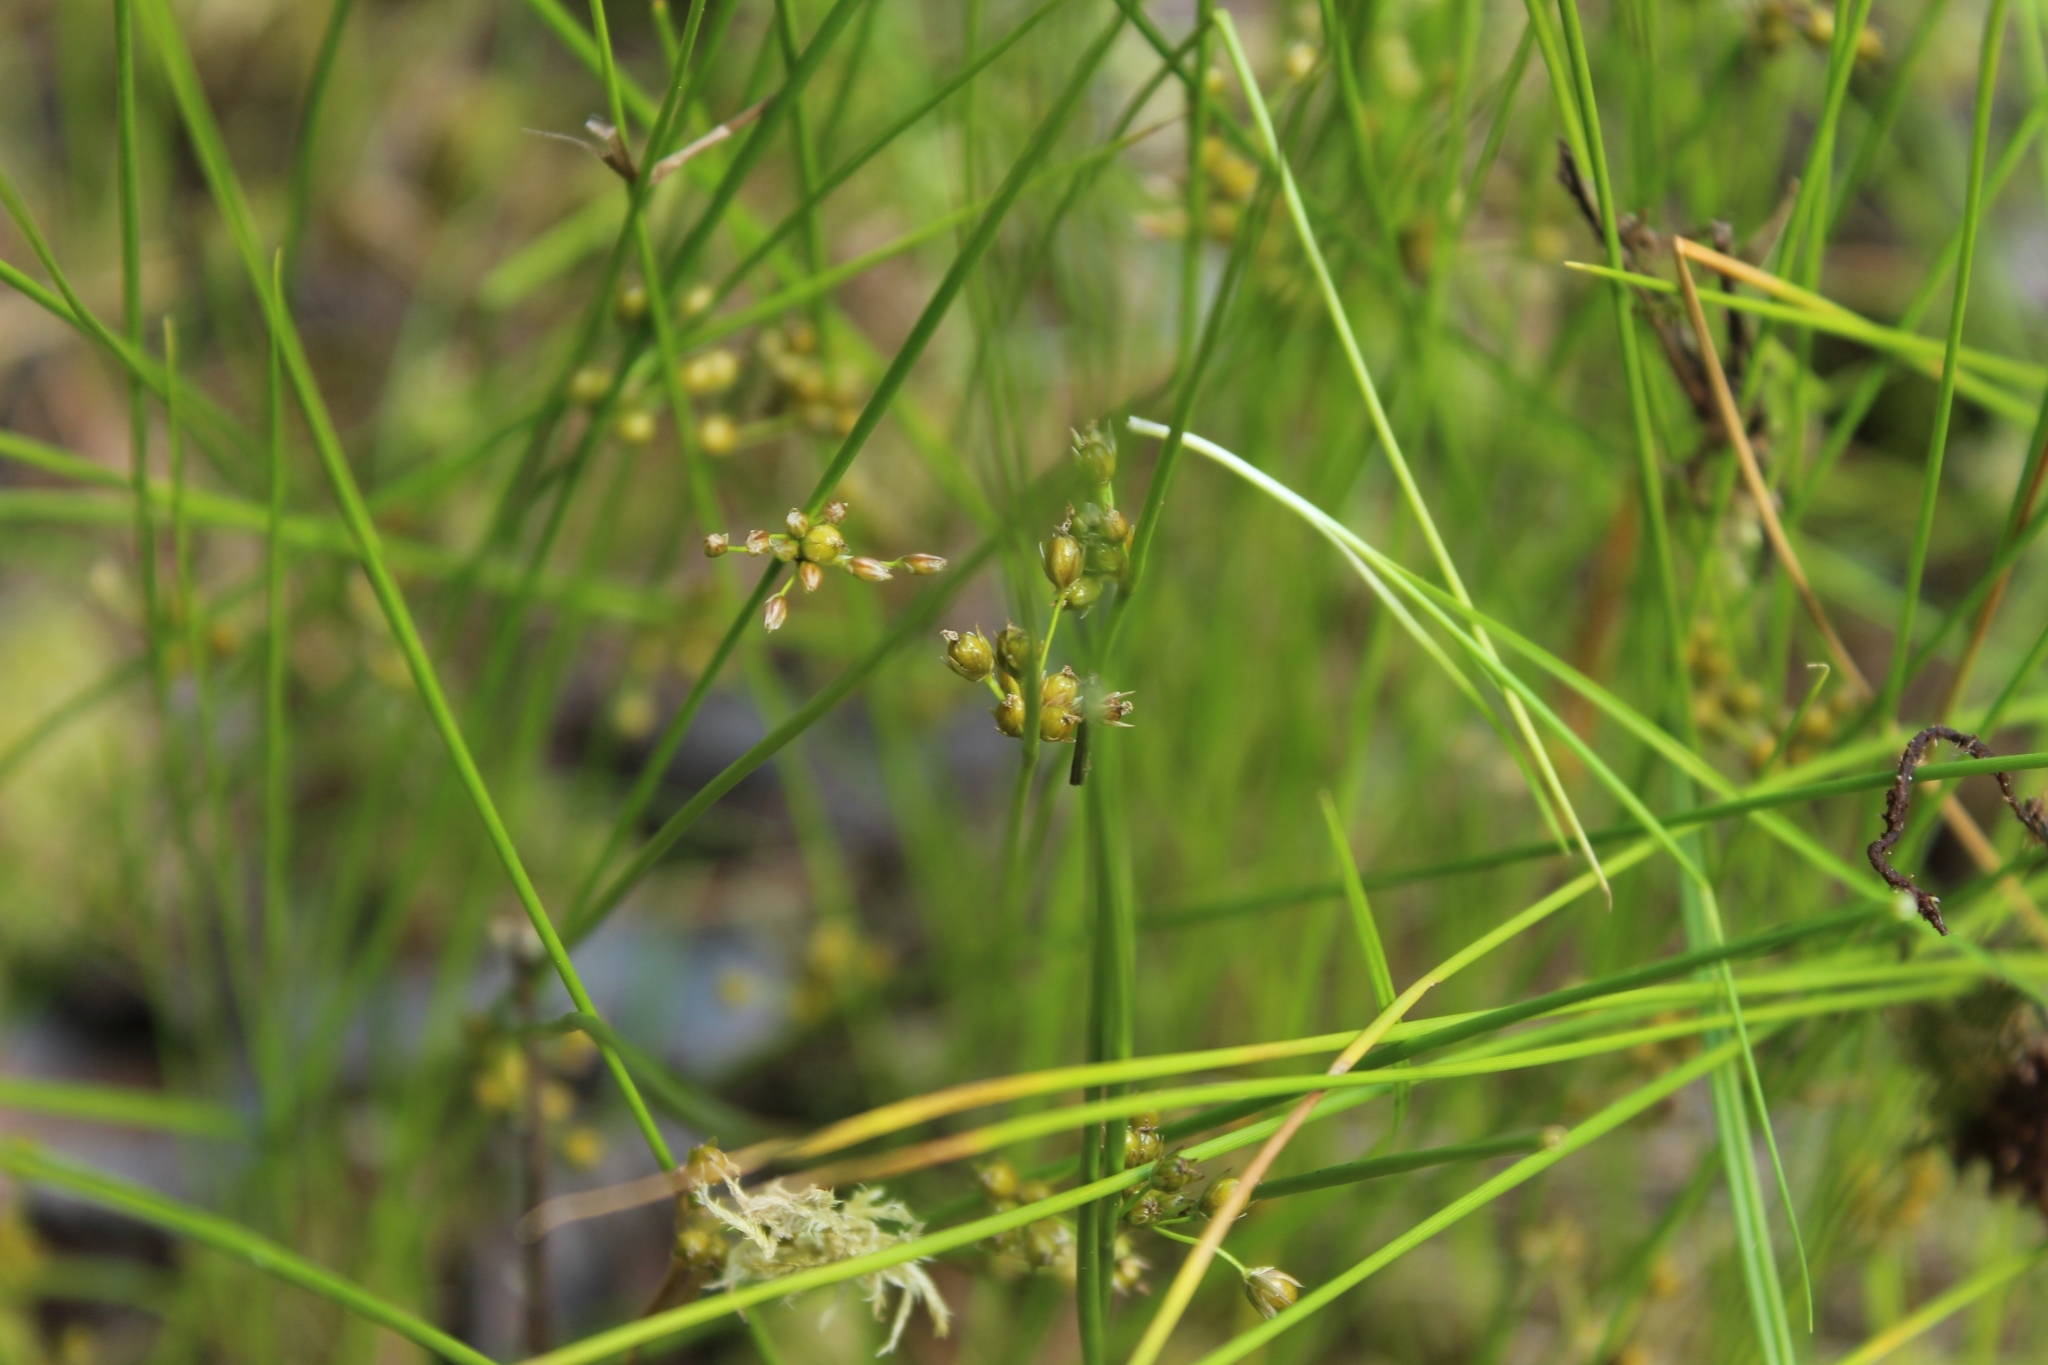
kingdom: Plantae
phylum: Tracheophyta
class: Liliopsida
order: Poales
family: Juncaceae
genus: Juncus
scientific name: Juncus filiformis
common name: Thread rush
